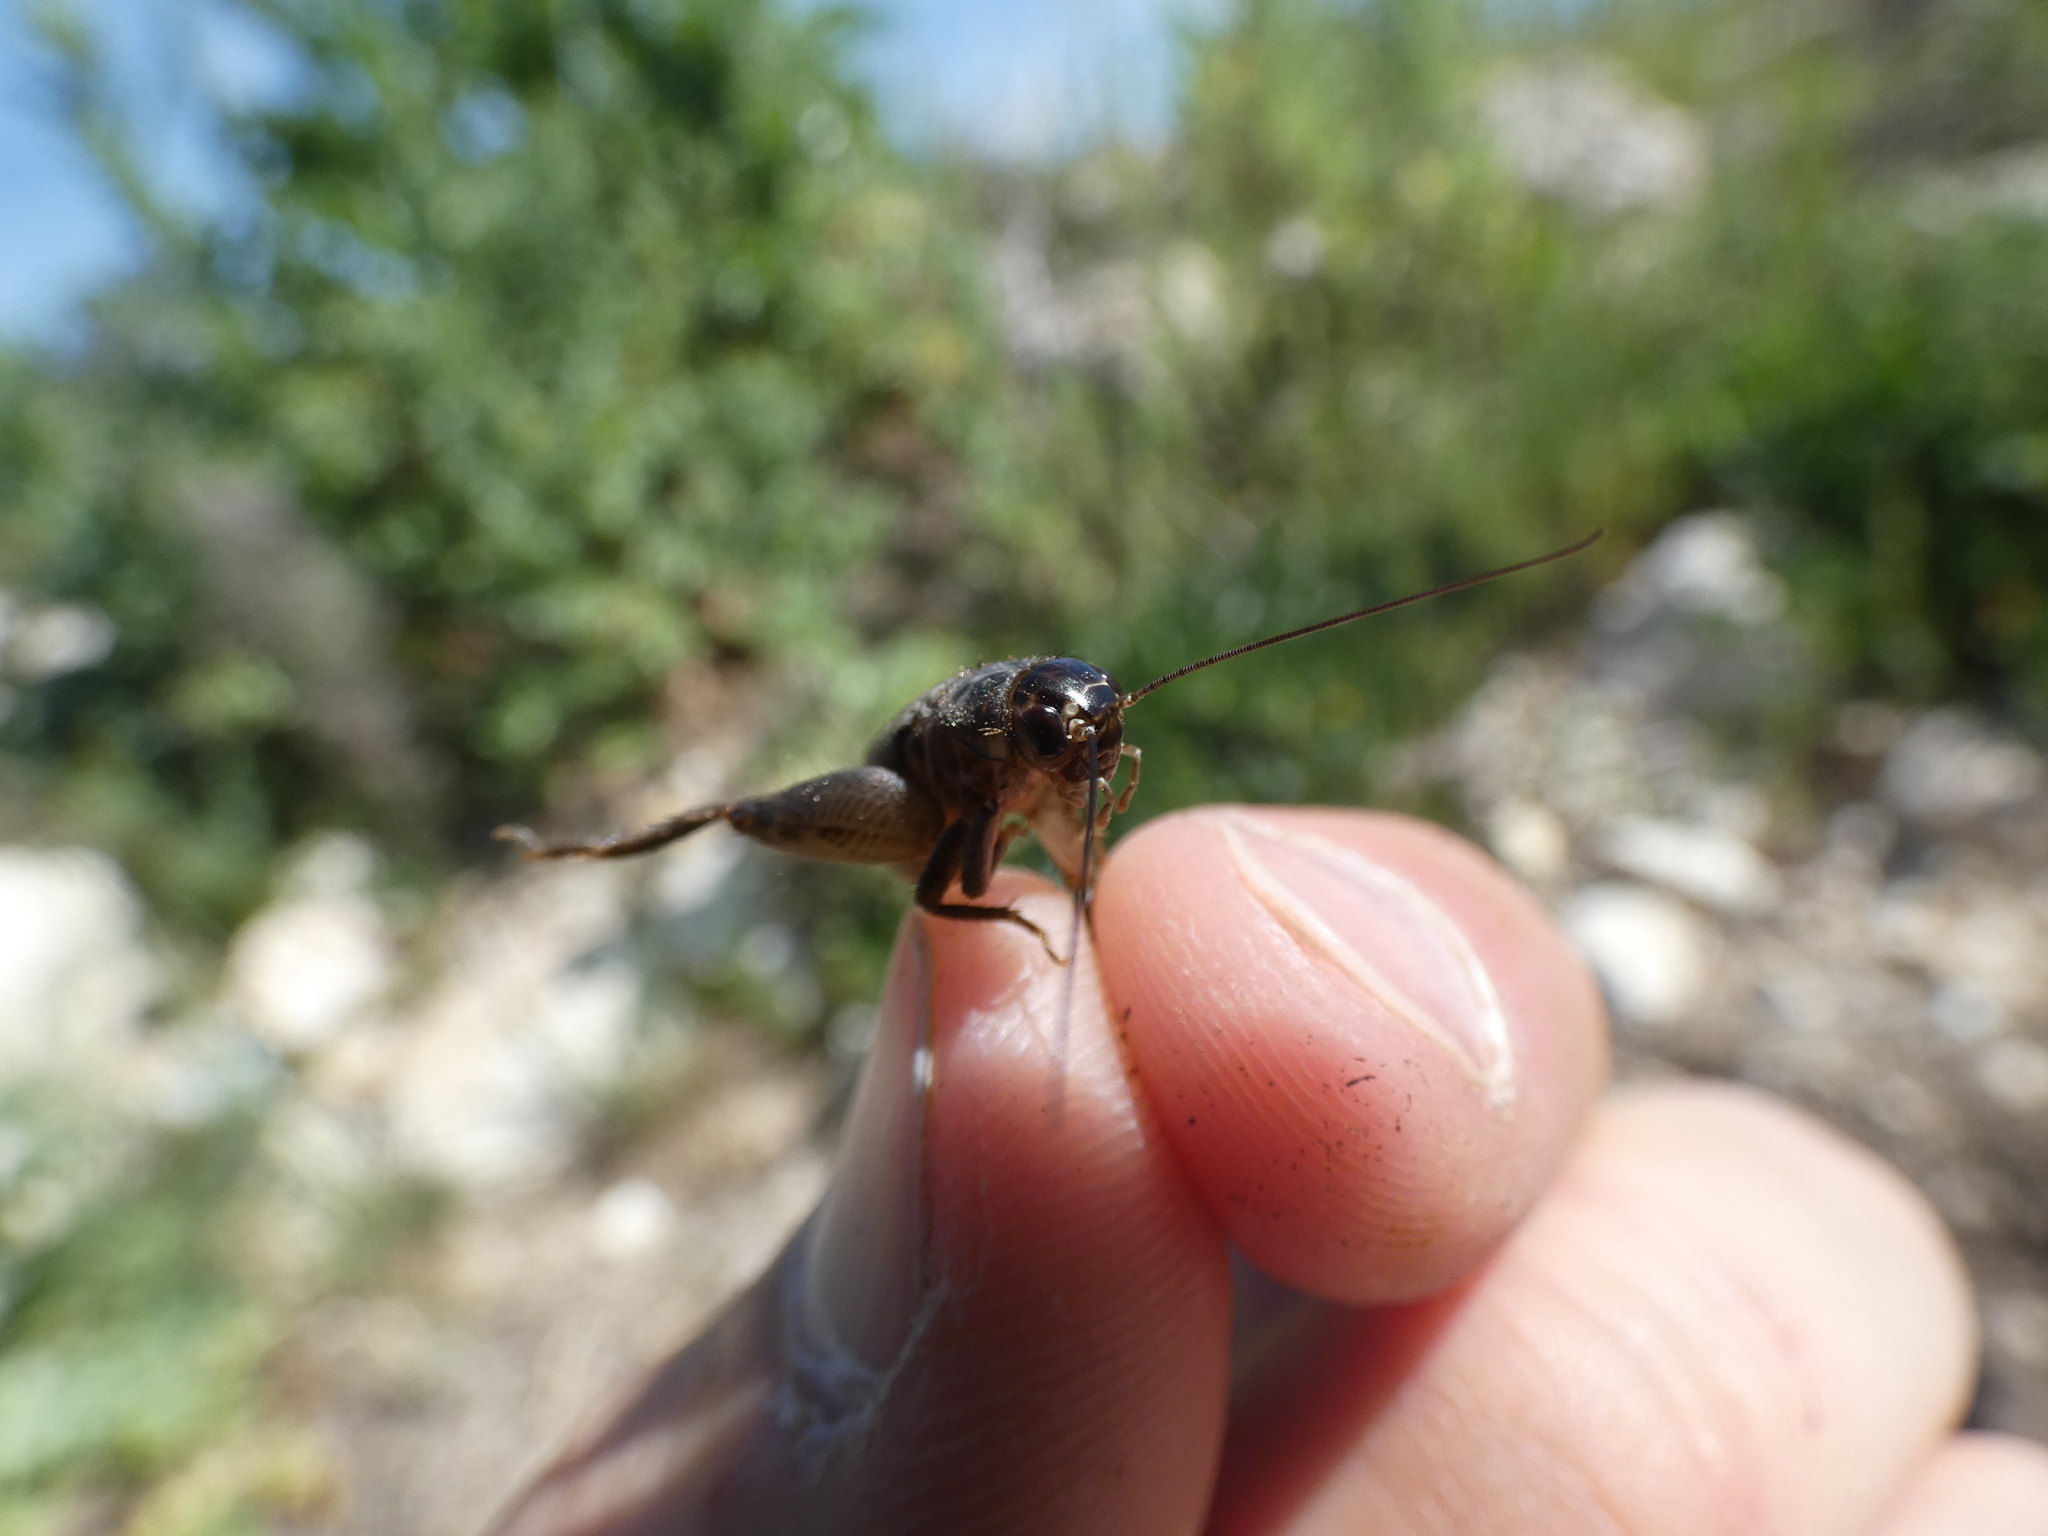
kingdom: Animalia
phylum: Arthropoda
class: Insecta
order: Orthoptera
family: Gryllidae
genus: Eumodicogryllus
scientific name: Eumodicogryllus bordigalensis
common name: Bordeaux cricket
